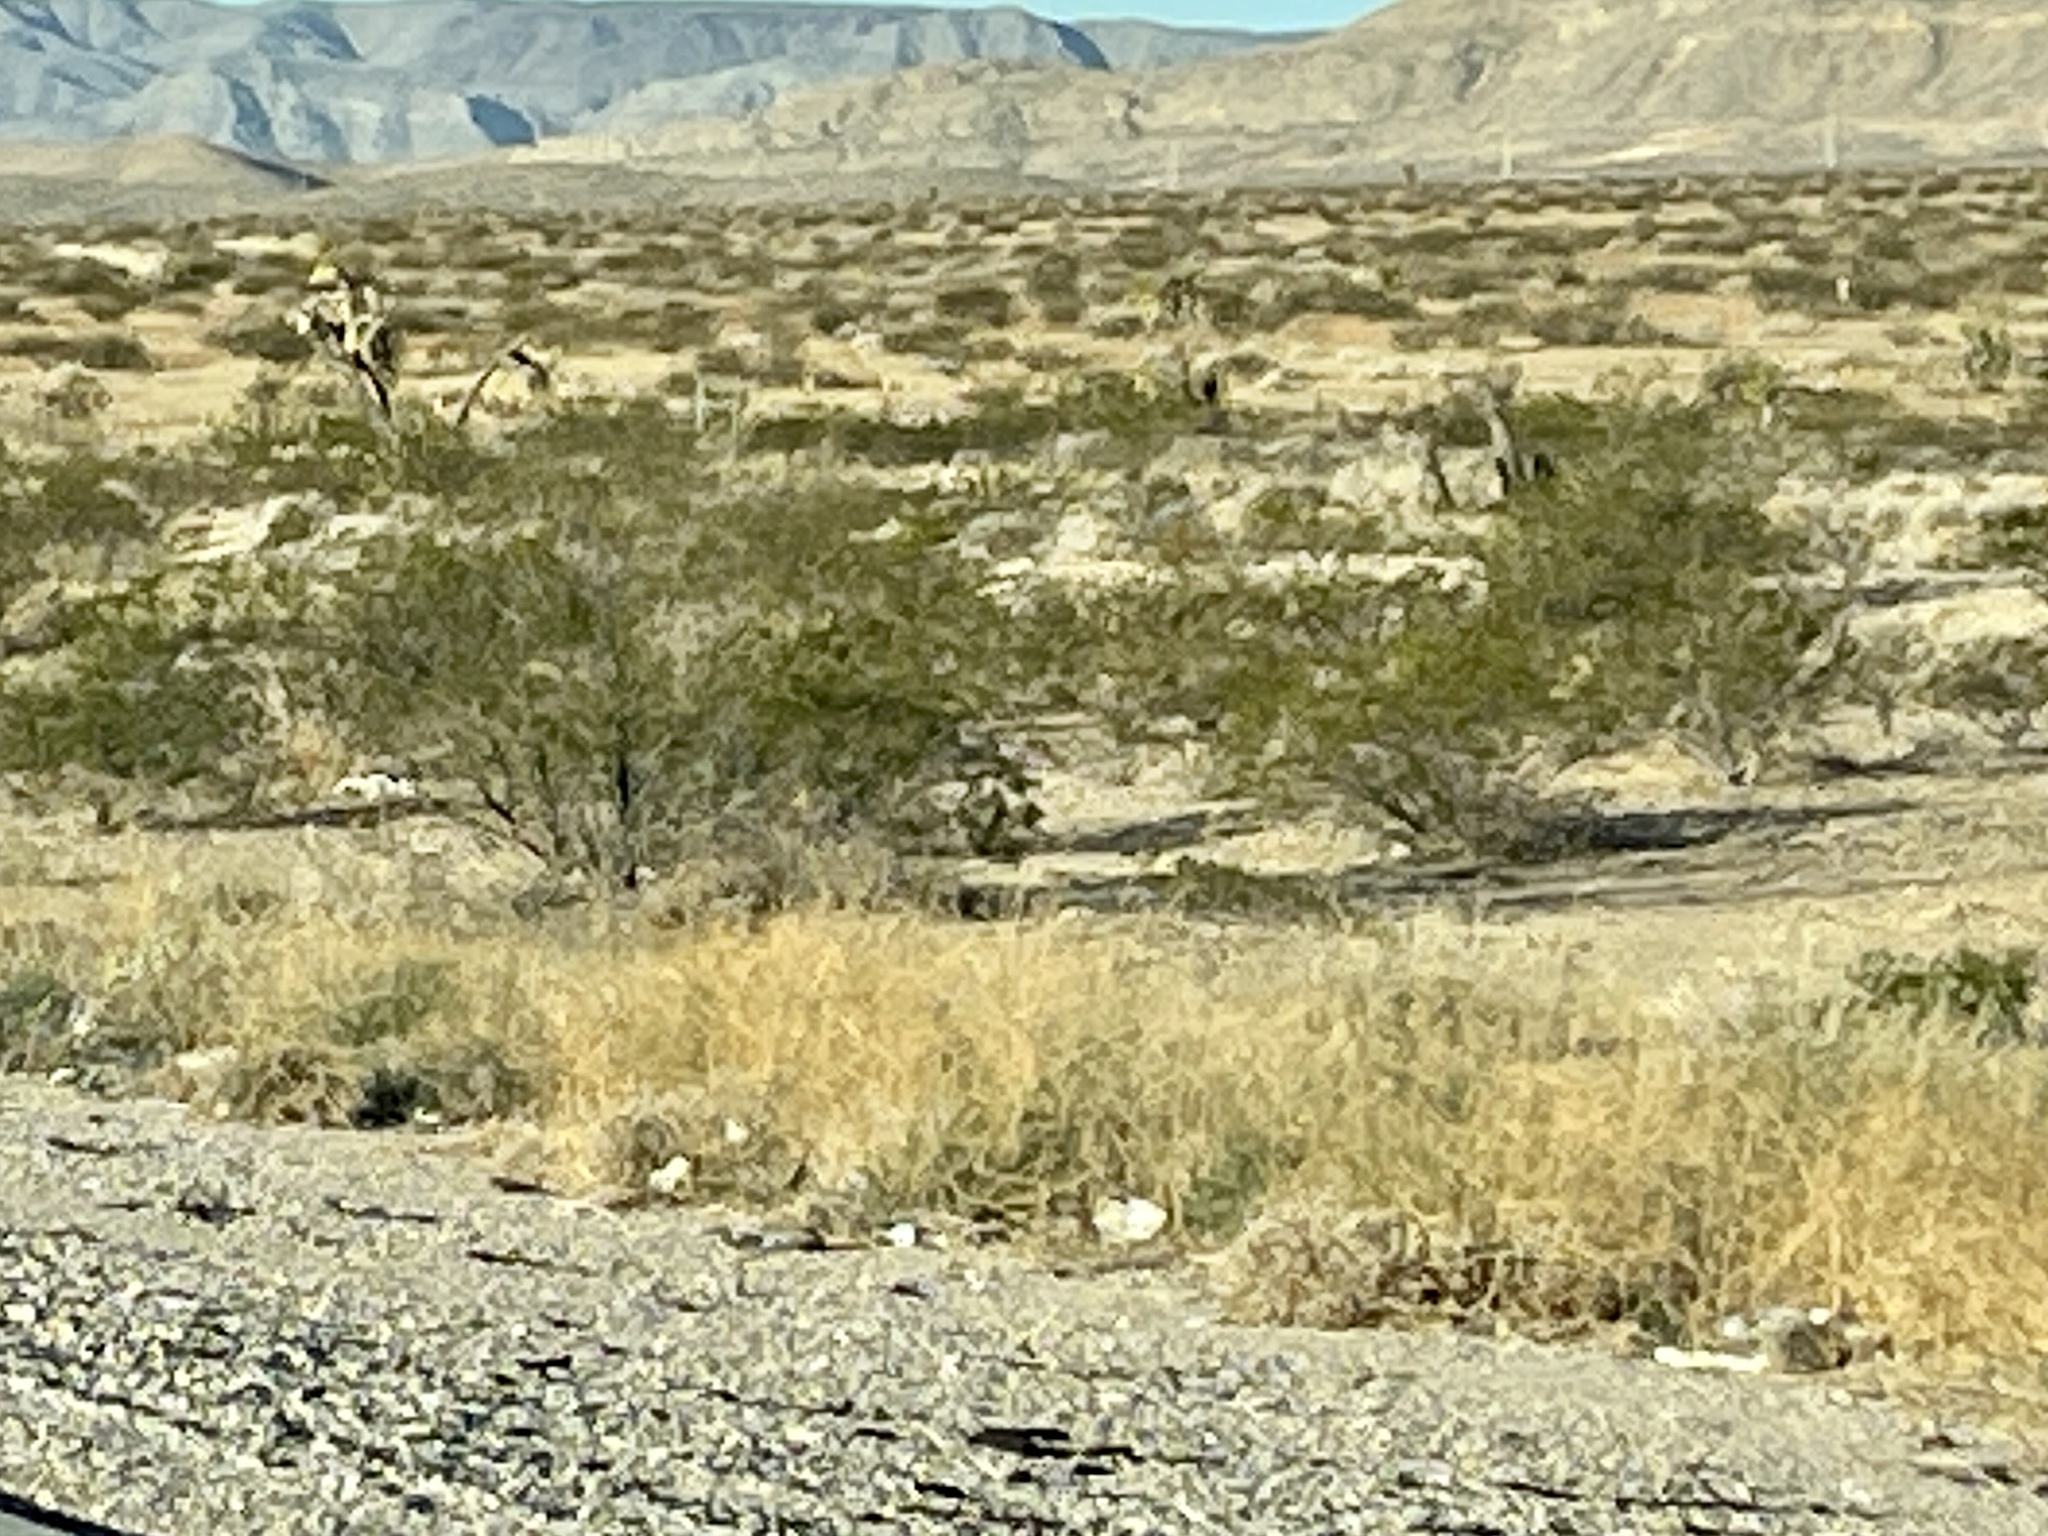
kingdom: Plantae
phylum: Tracheophyta
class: Magnoliopsida
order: Zygophyllales
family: Zygophyllaceae
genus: Larrea
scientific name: Larrea tridentata
